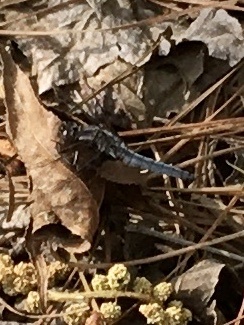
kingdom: Animalia
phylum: Arthropoda
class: Insecta
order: Odonata
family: Libellulidae
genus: Ladona
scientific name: Ladona deplanata
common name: Blue corporal
